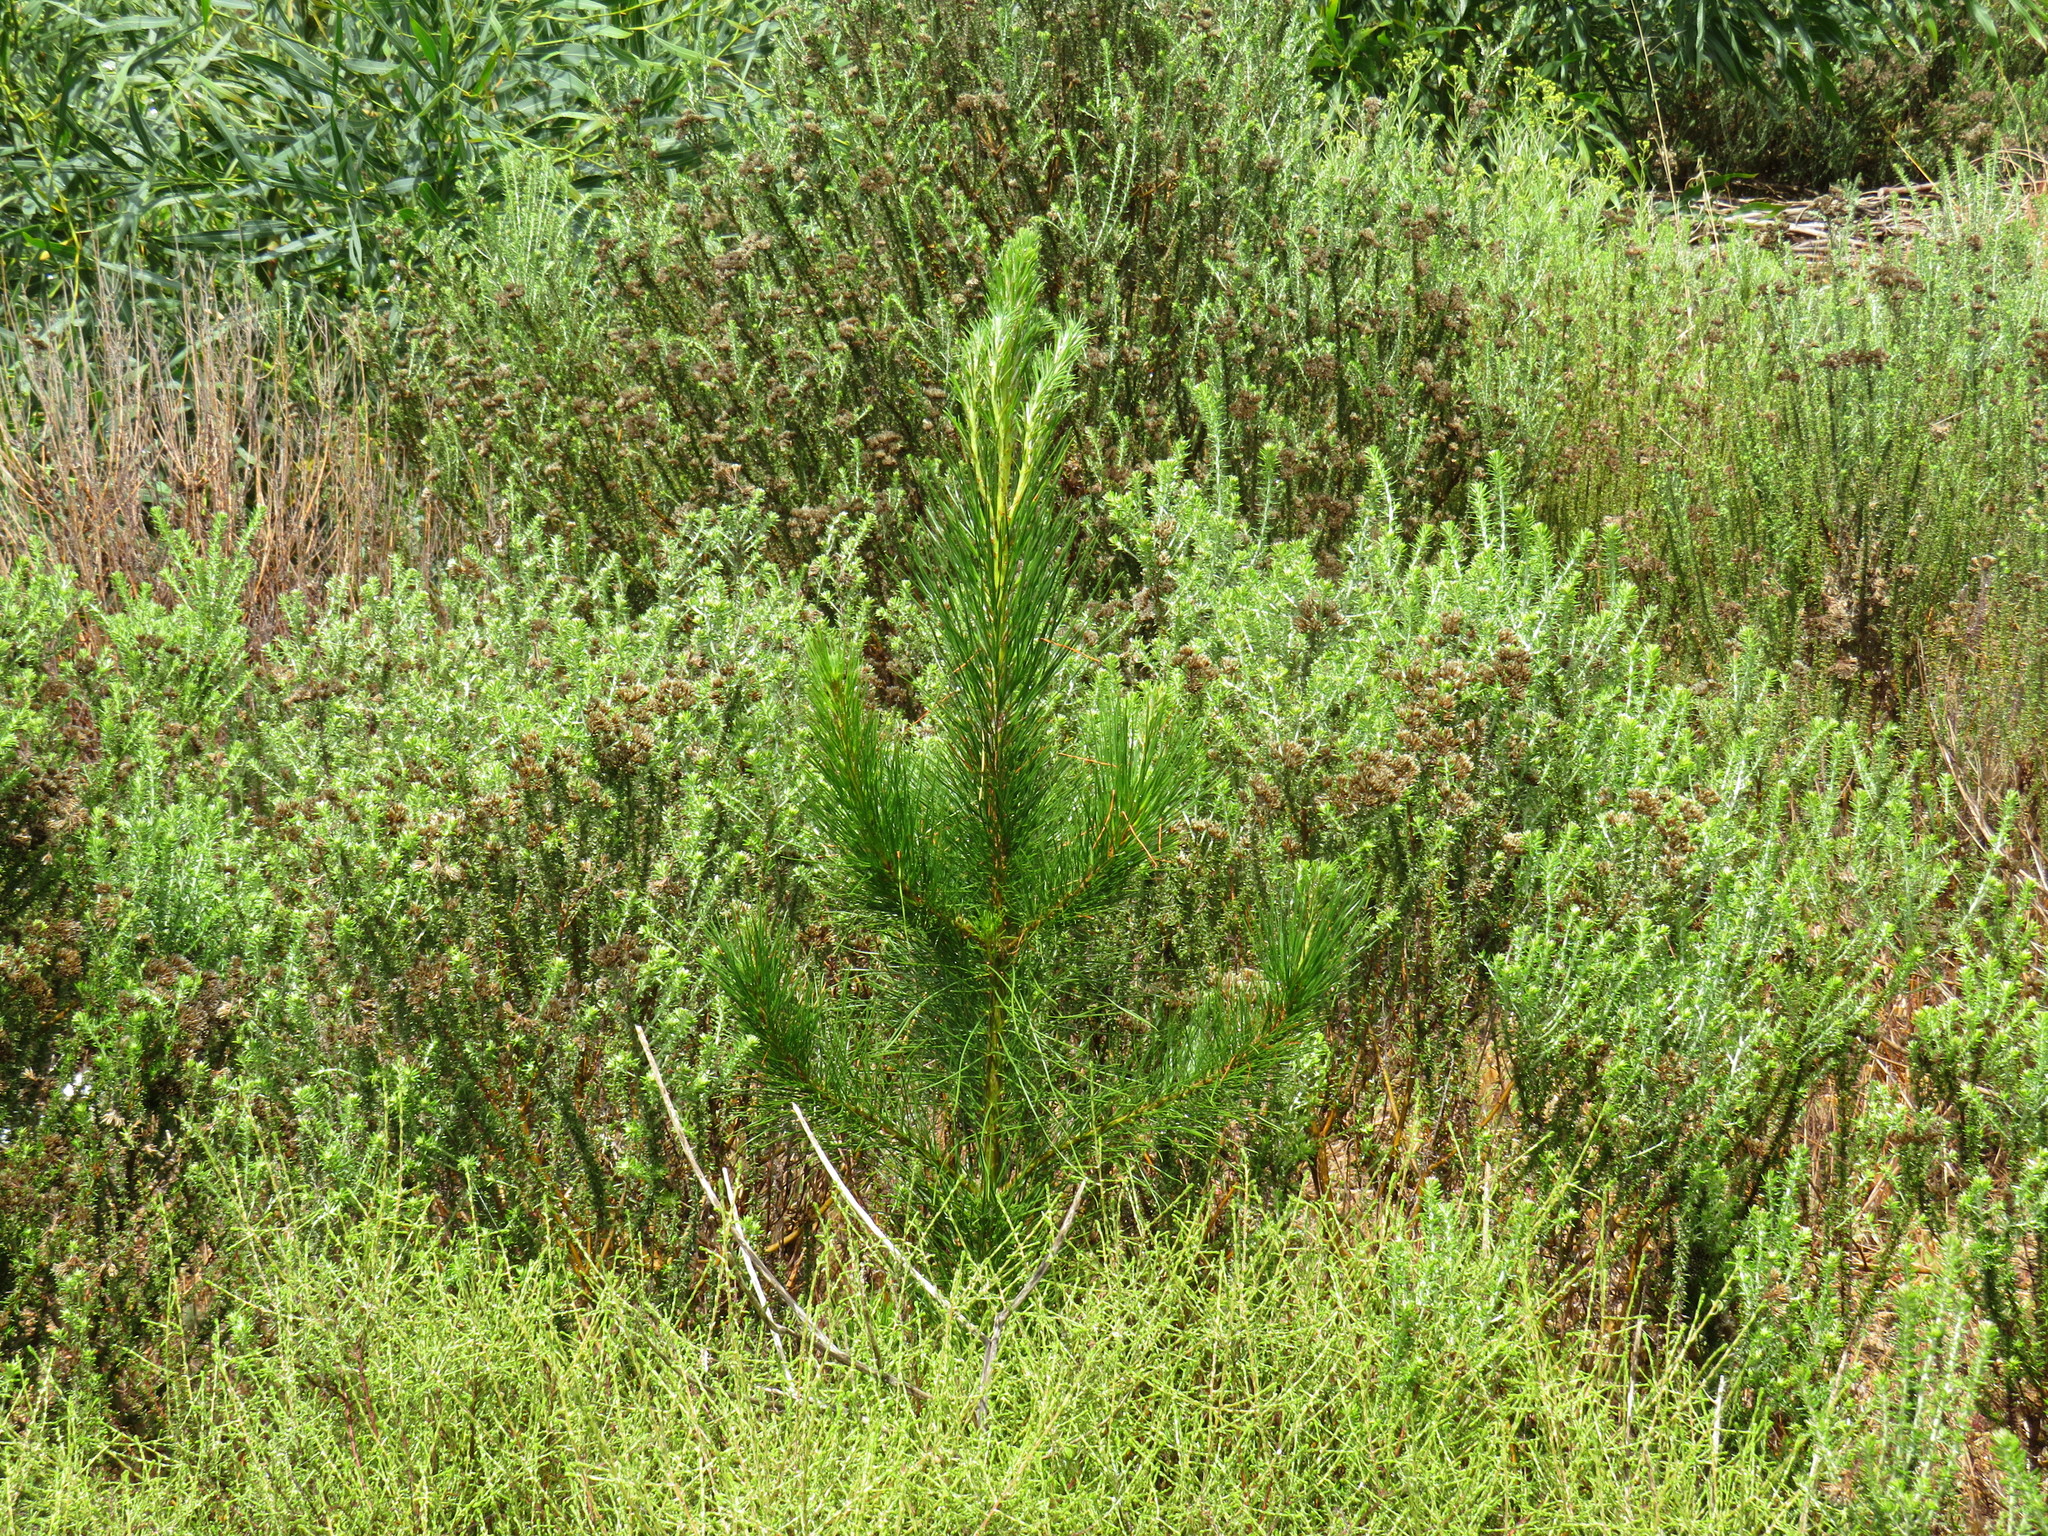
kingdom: Plantae
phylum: Tracheophyta
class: Pinopsida
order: Pinales
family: Pinaceae
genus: Pinus
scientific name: Pinus radiata
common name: Monterey pine
